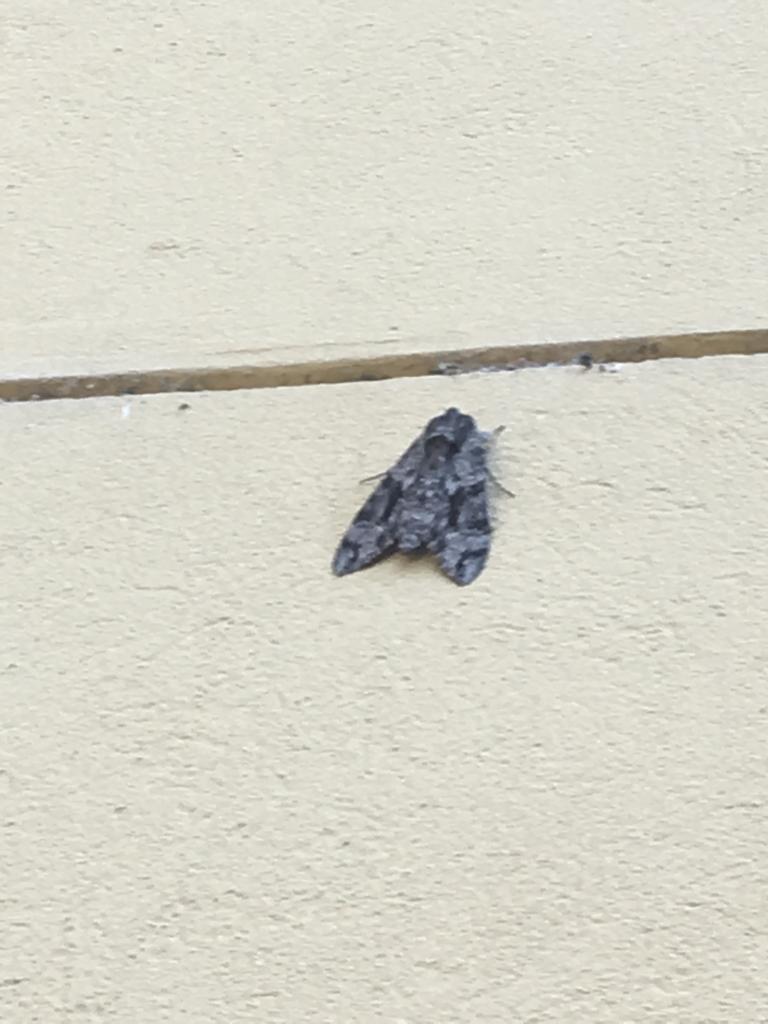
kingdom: Animalia
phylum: Arthropoda
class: Insecta
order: Lepidoptera
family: Sphingidae
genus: Agrius
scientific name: Agrius convolvuli
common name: Convolvulus hawkmoth
